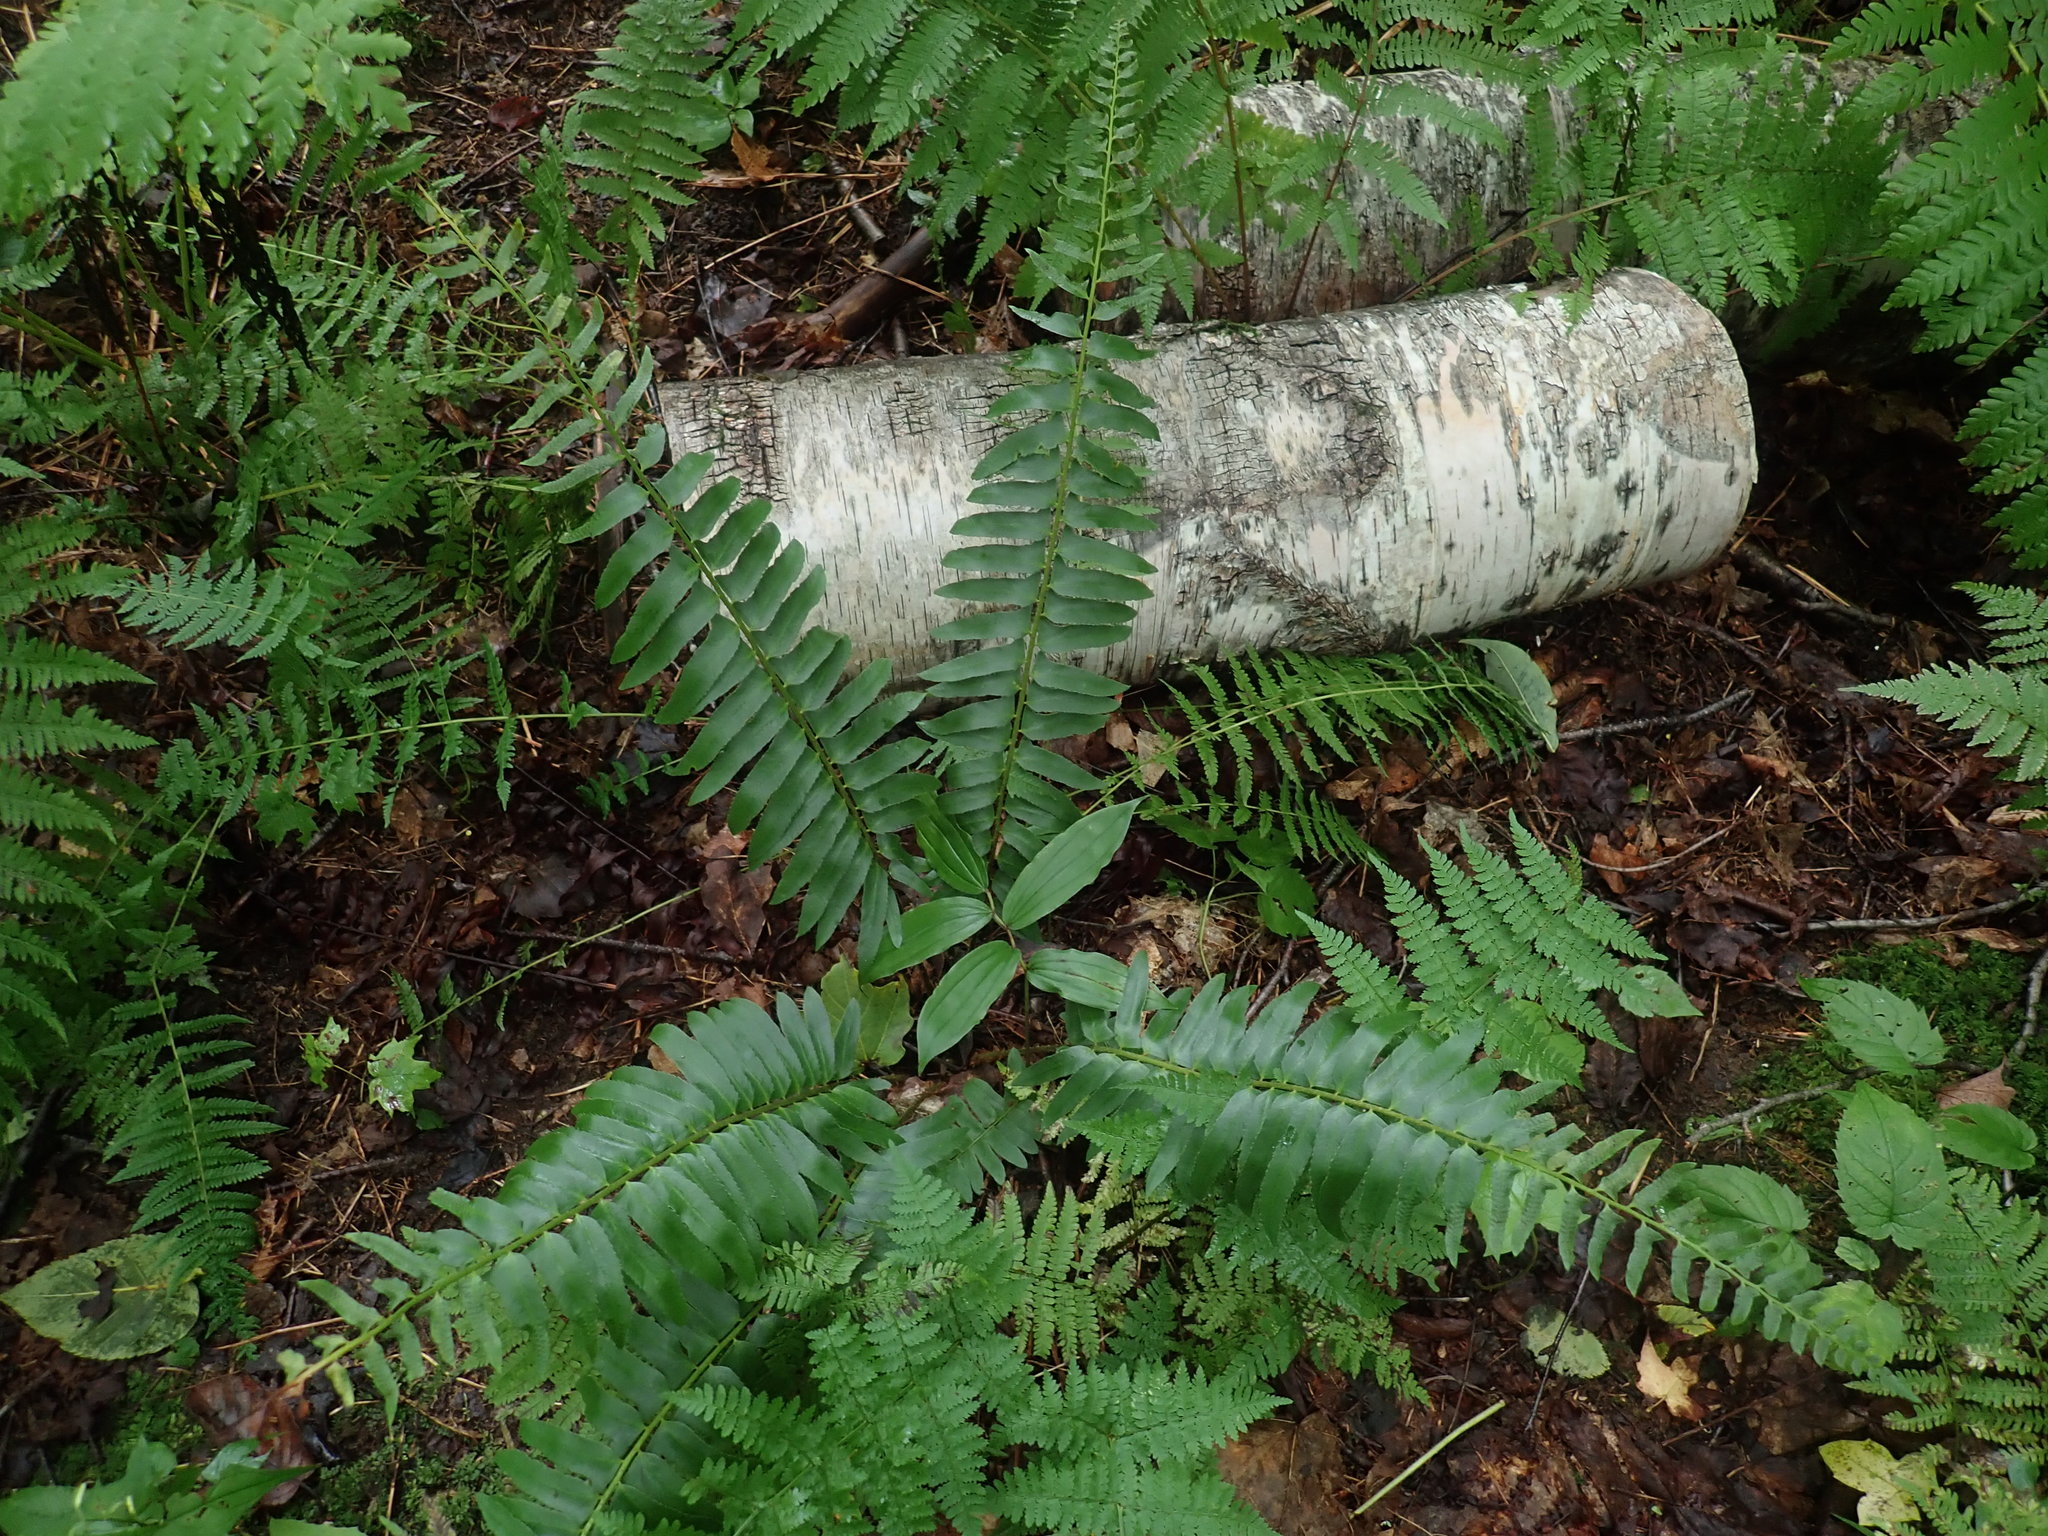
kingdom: Plantae
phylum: Tracheophyta
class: Polypodiopsida
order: Polypodiales
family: Dryopteridaceae
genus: Polystichum
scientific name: Polystichum acrostichoides
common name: Christmas fern
